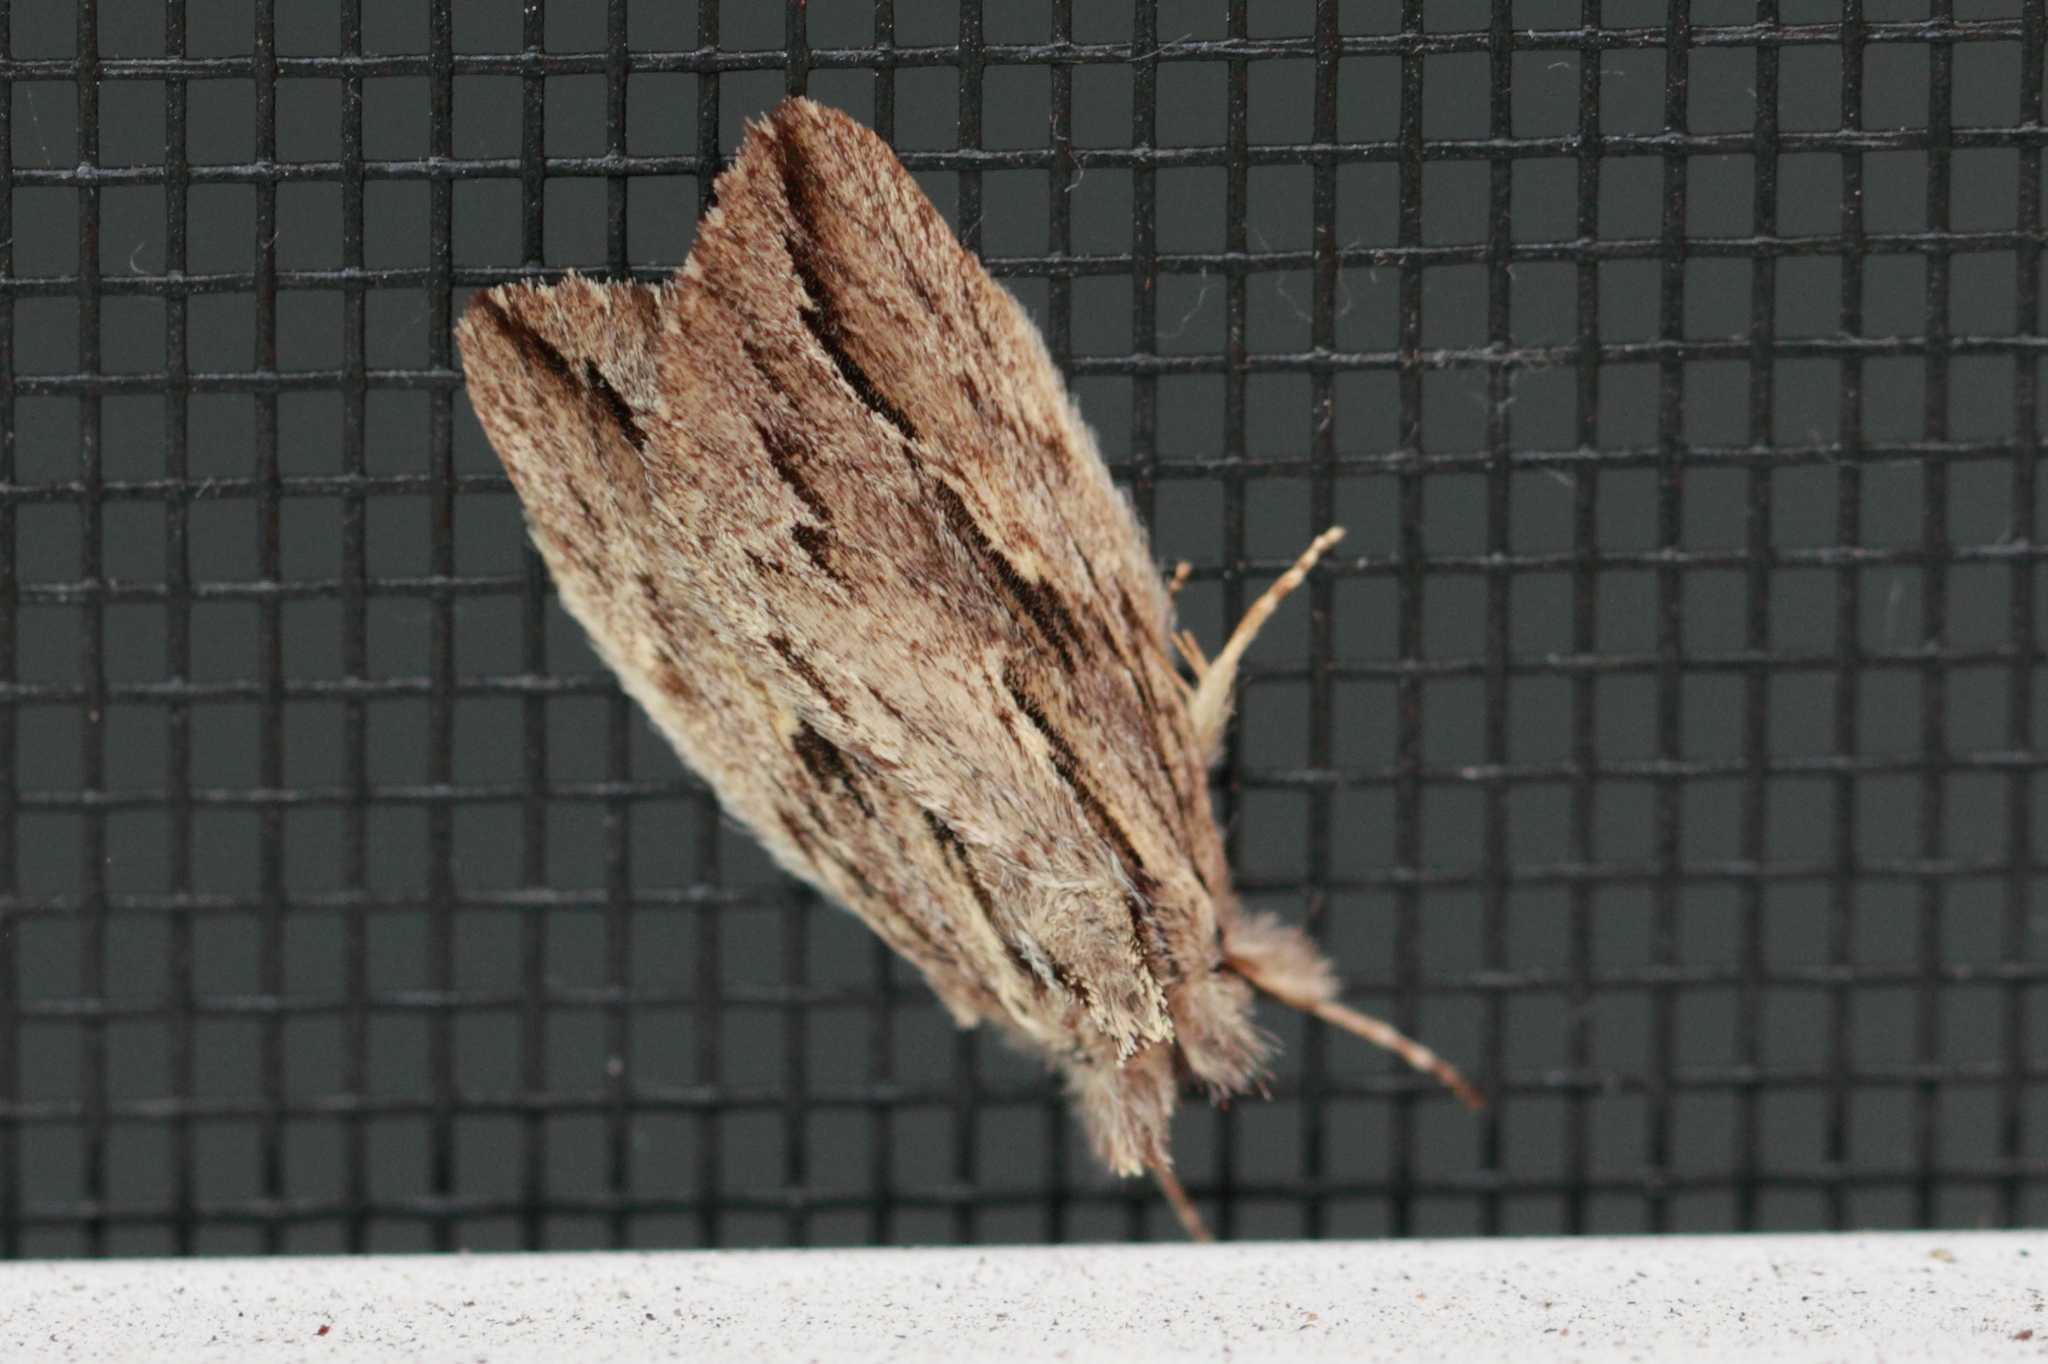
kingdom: Animalia
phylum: Arthropoda
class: Insecta
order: Lepidoptera
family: Notodontidae
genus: Ecnomodes
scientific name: Ecnomodes sagittaria
